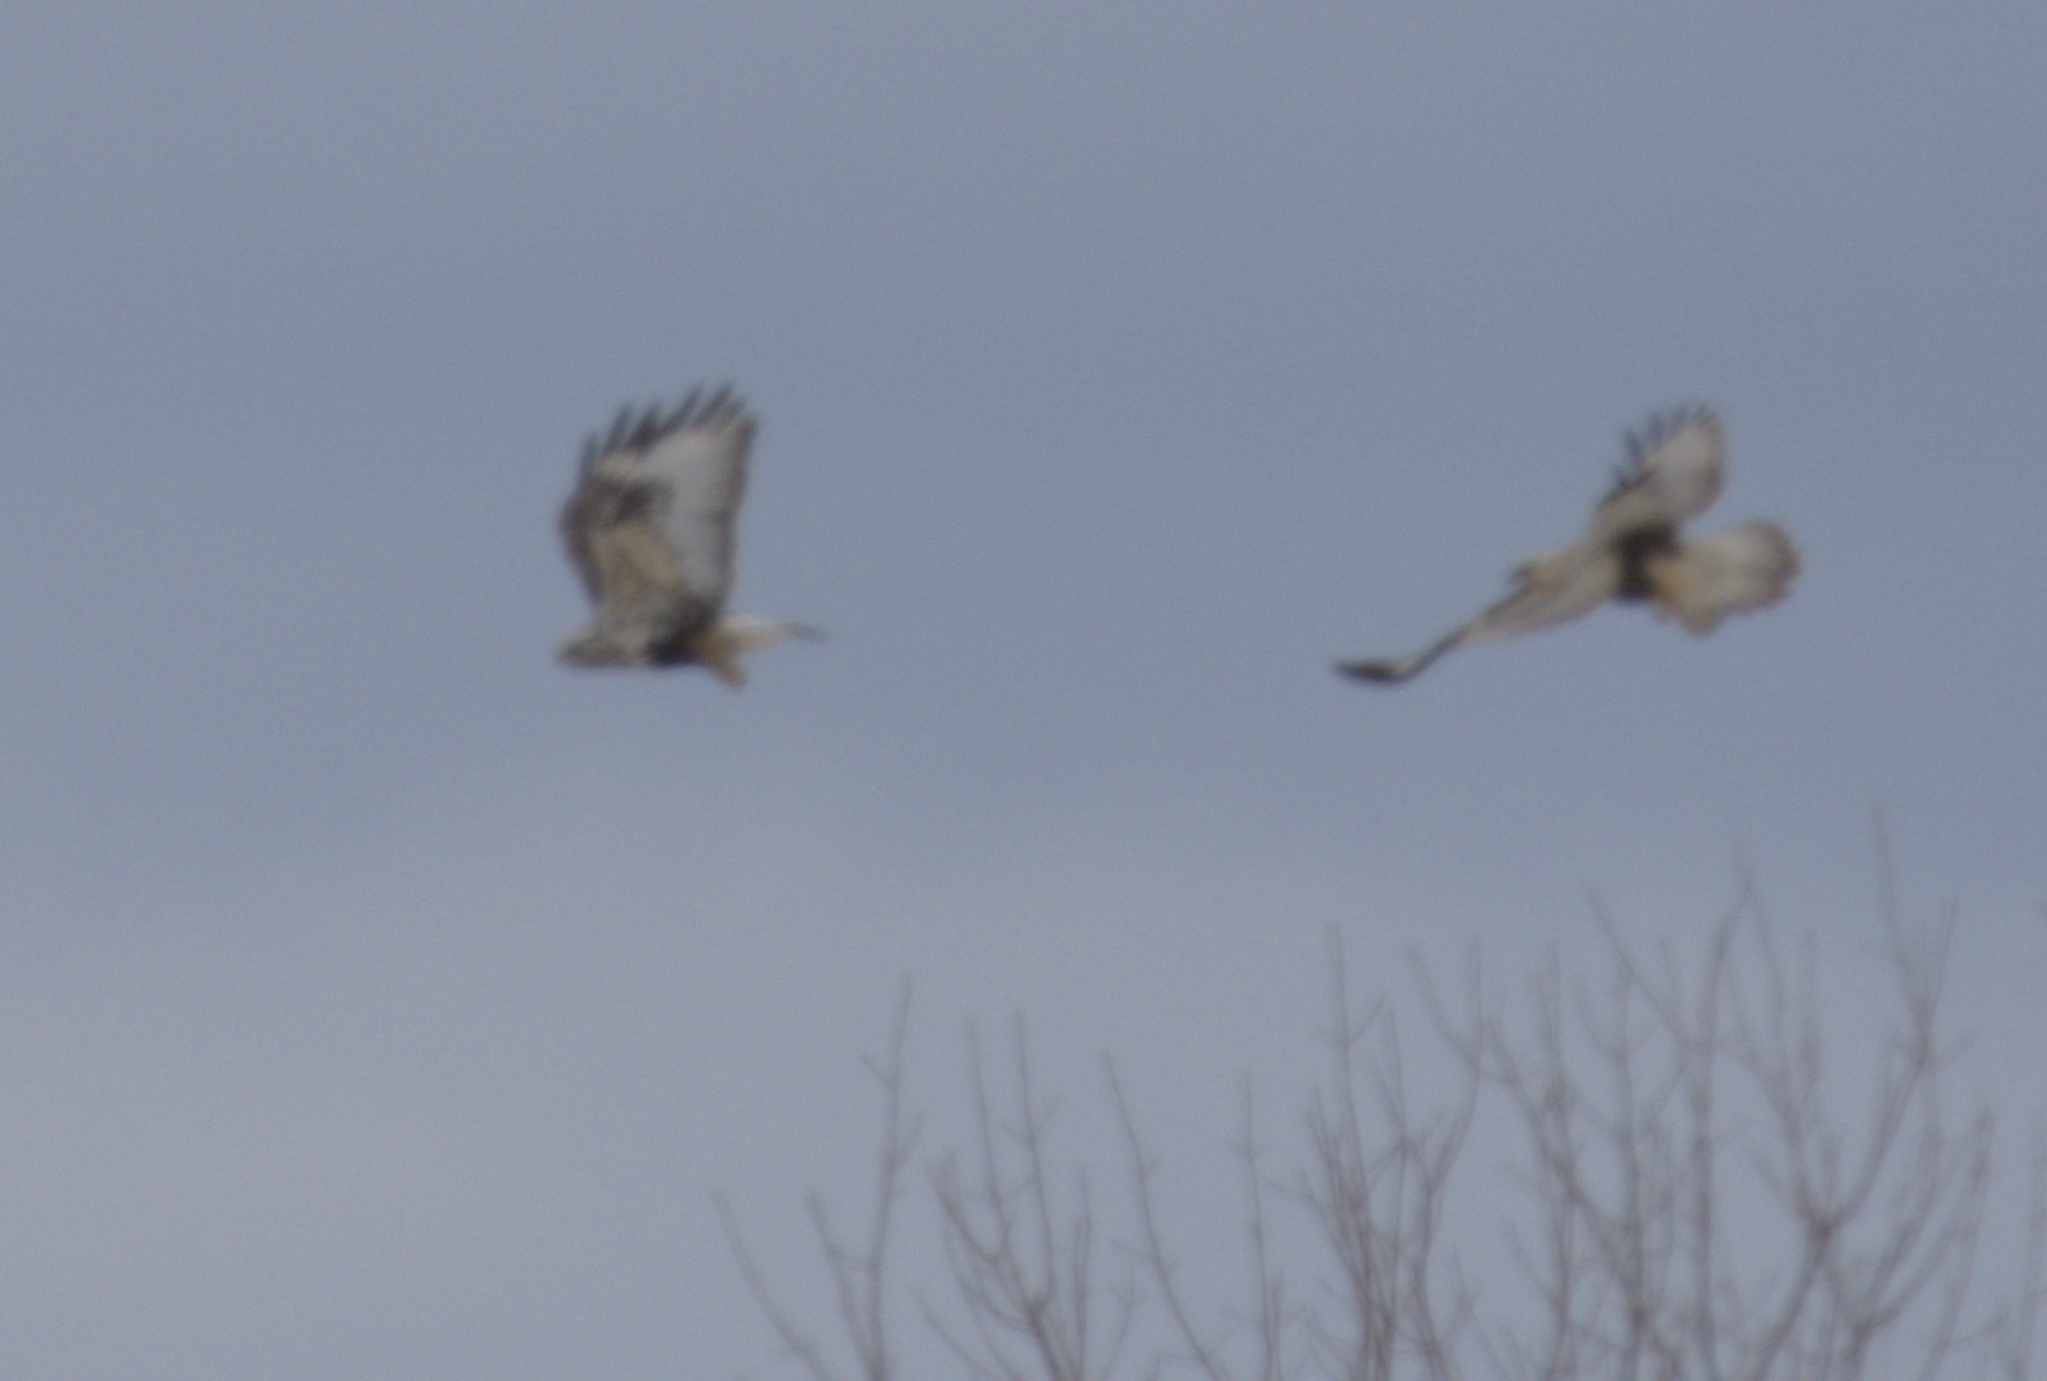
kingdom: Animalia
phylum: Chordata
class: Aves
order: Accipitriformes
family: Accipitridae
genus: Buteo
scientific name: Buteo lagopus
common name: Rough-legged buzzard
